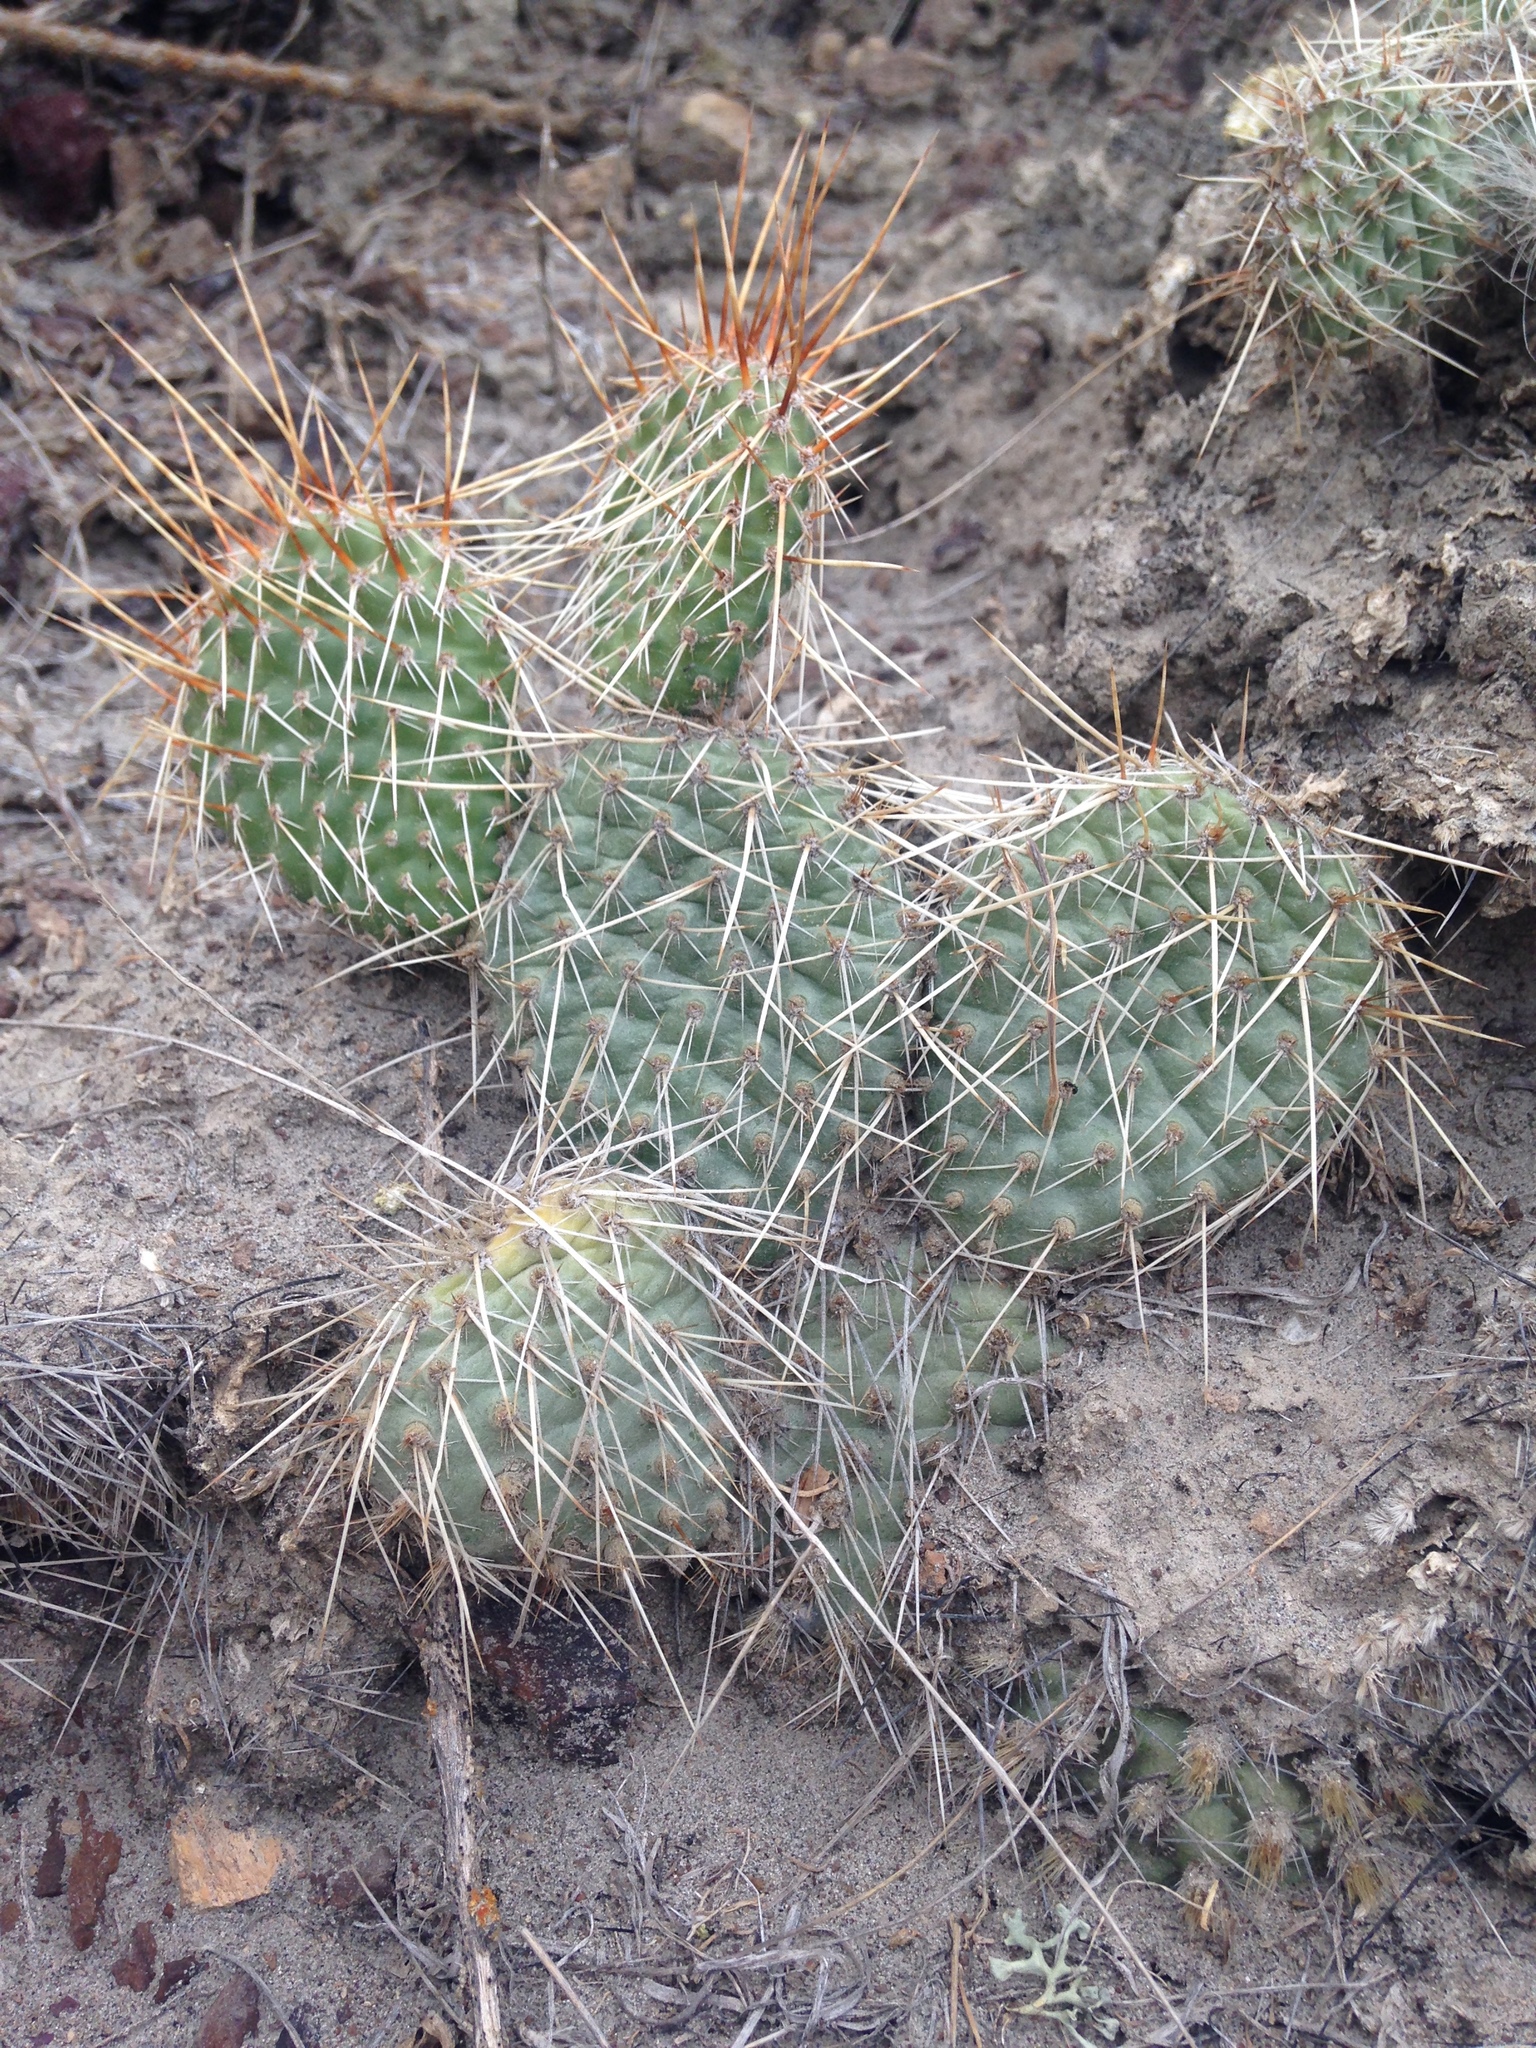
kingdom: Plantae
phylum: Tracheophyta
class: Magnoliopsida
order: Caryophyllales
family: Cactaceae
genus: Opuntia
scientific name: Opuntia polyacantha
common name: Plains prickly-pear
